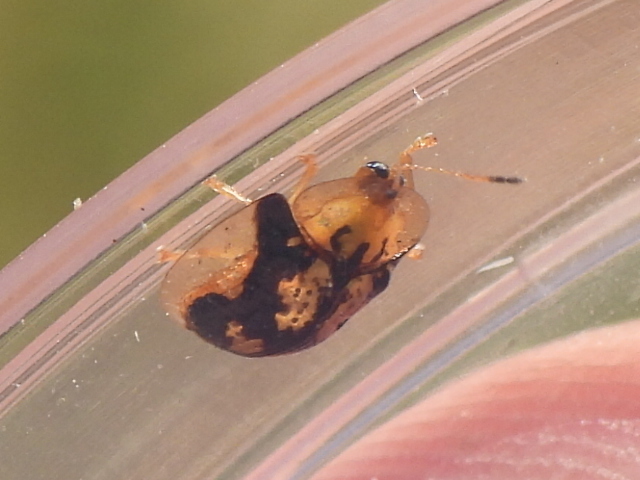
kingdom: Animalia
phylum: Arthropoda
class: Insecta
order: Coleoptera
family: Chrysomelidae
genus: Deloyala
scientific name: Deloyala guttata
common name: Mottled tortoise beetle
